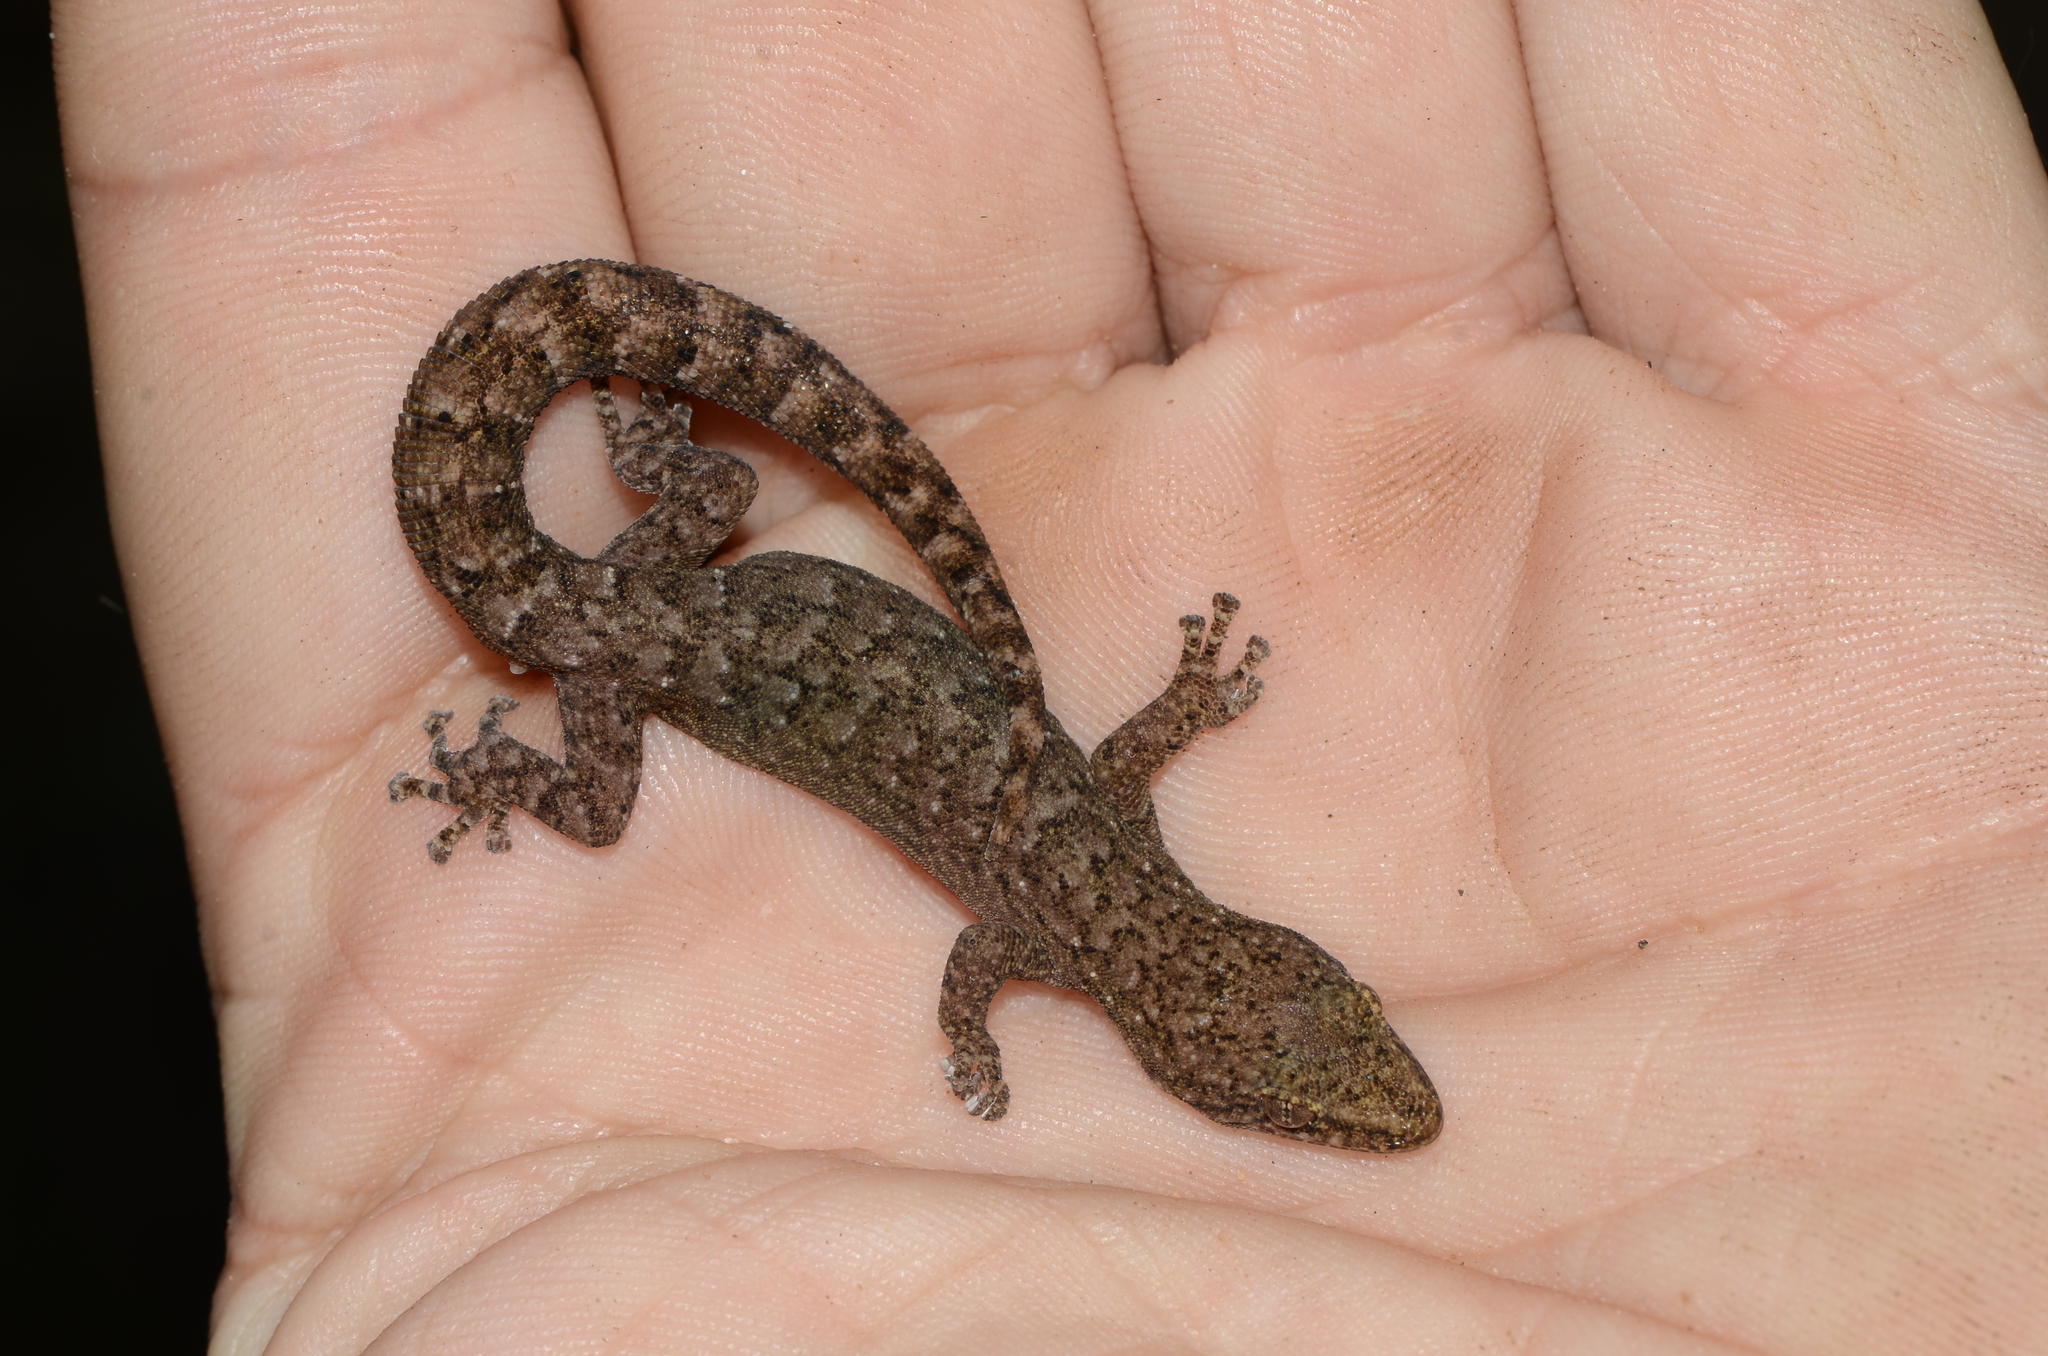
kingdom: Animalia
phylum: Chordata
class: Squamata
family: Gekkonidae
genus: Afrogecko
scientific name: Afrogecko porphyreus
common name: Marbled leaf-toed gecko
